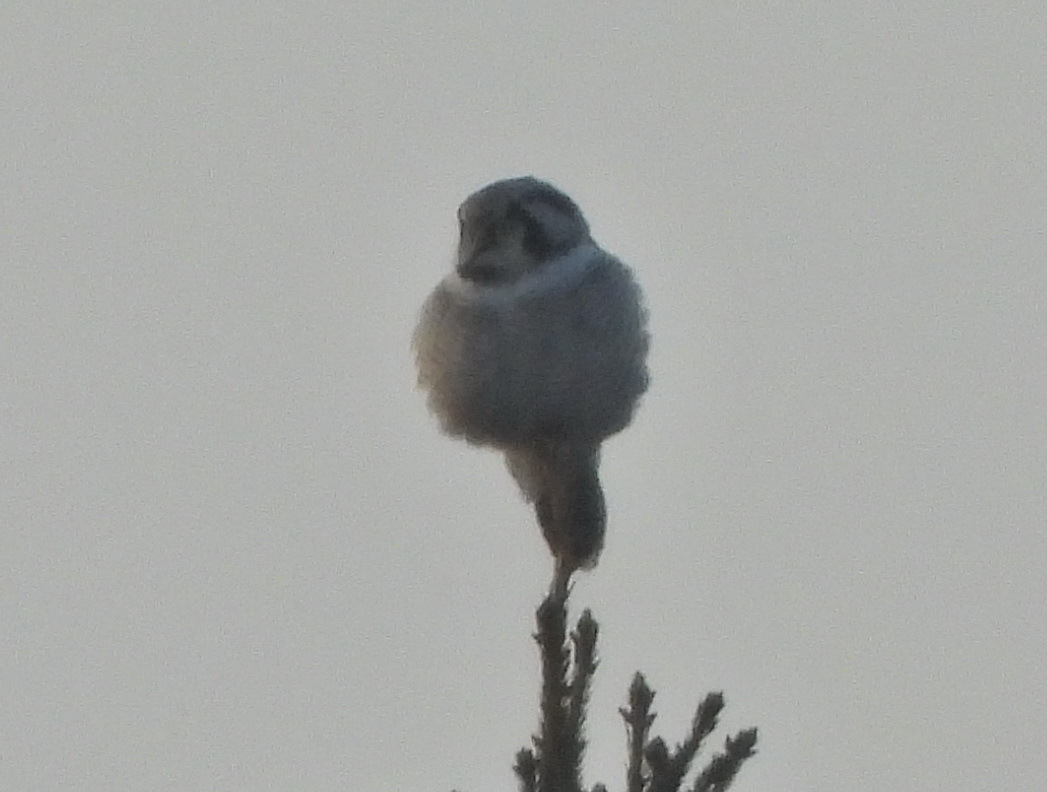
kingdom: Animalia
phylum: Chordata
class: Aves
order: Strigiformes
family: Strigidae
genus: Surnia
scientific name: Surnia ulula
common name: Northern hawk-owl
